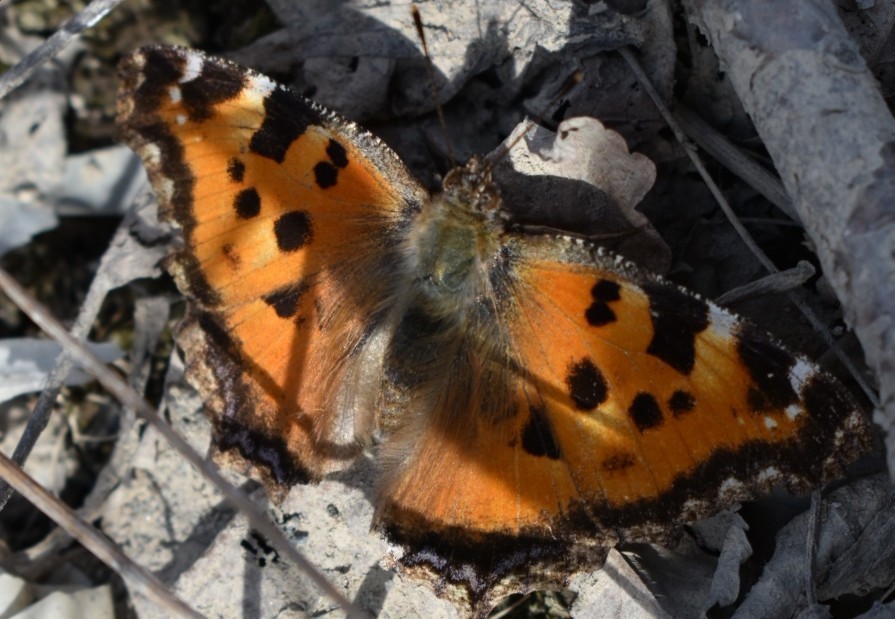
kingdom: Animalia
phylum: Arthropoda
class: Insecta
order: Lepidoptera
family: Nymphalidae
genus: Nymphalis
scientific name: Nymphalis xanthomelas
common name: Scarce tortoiseshell
